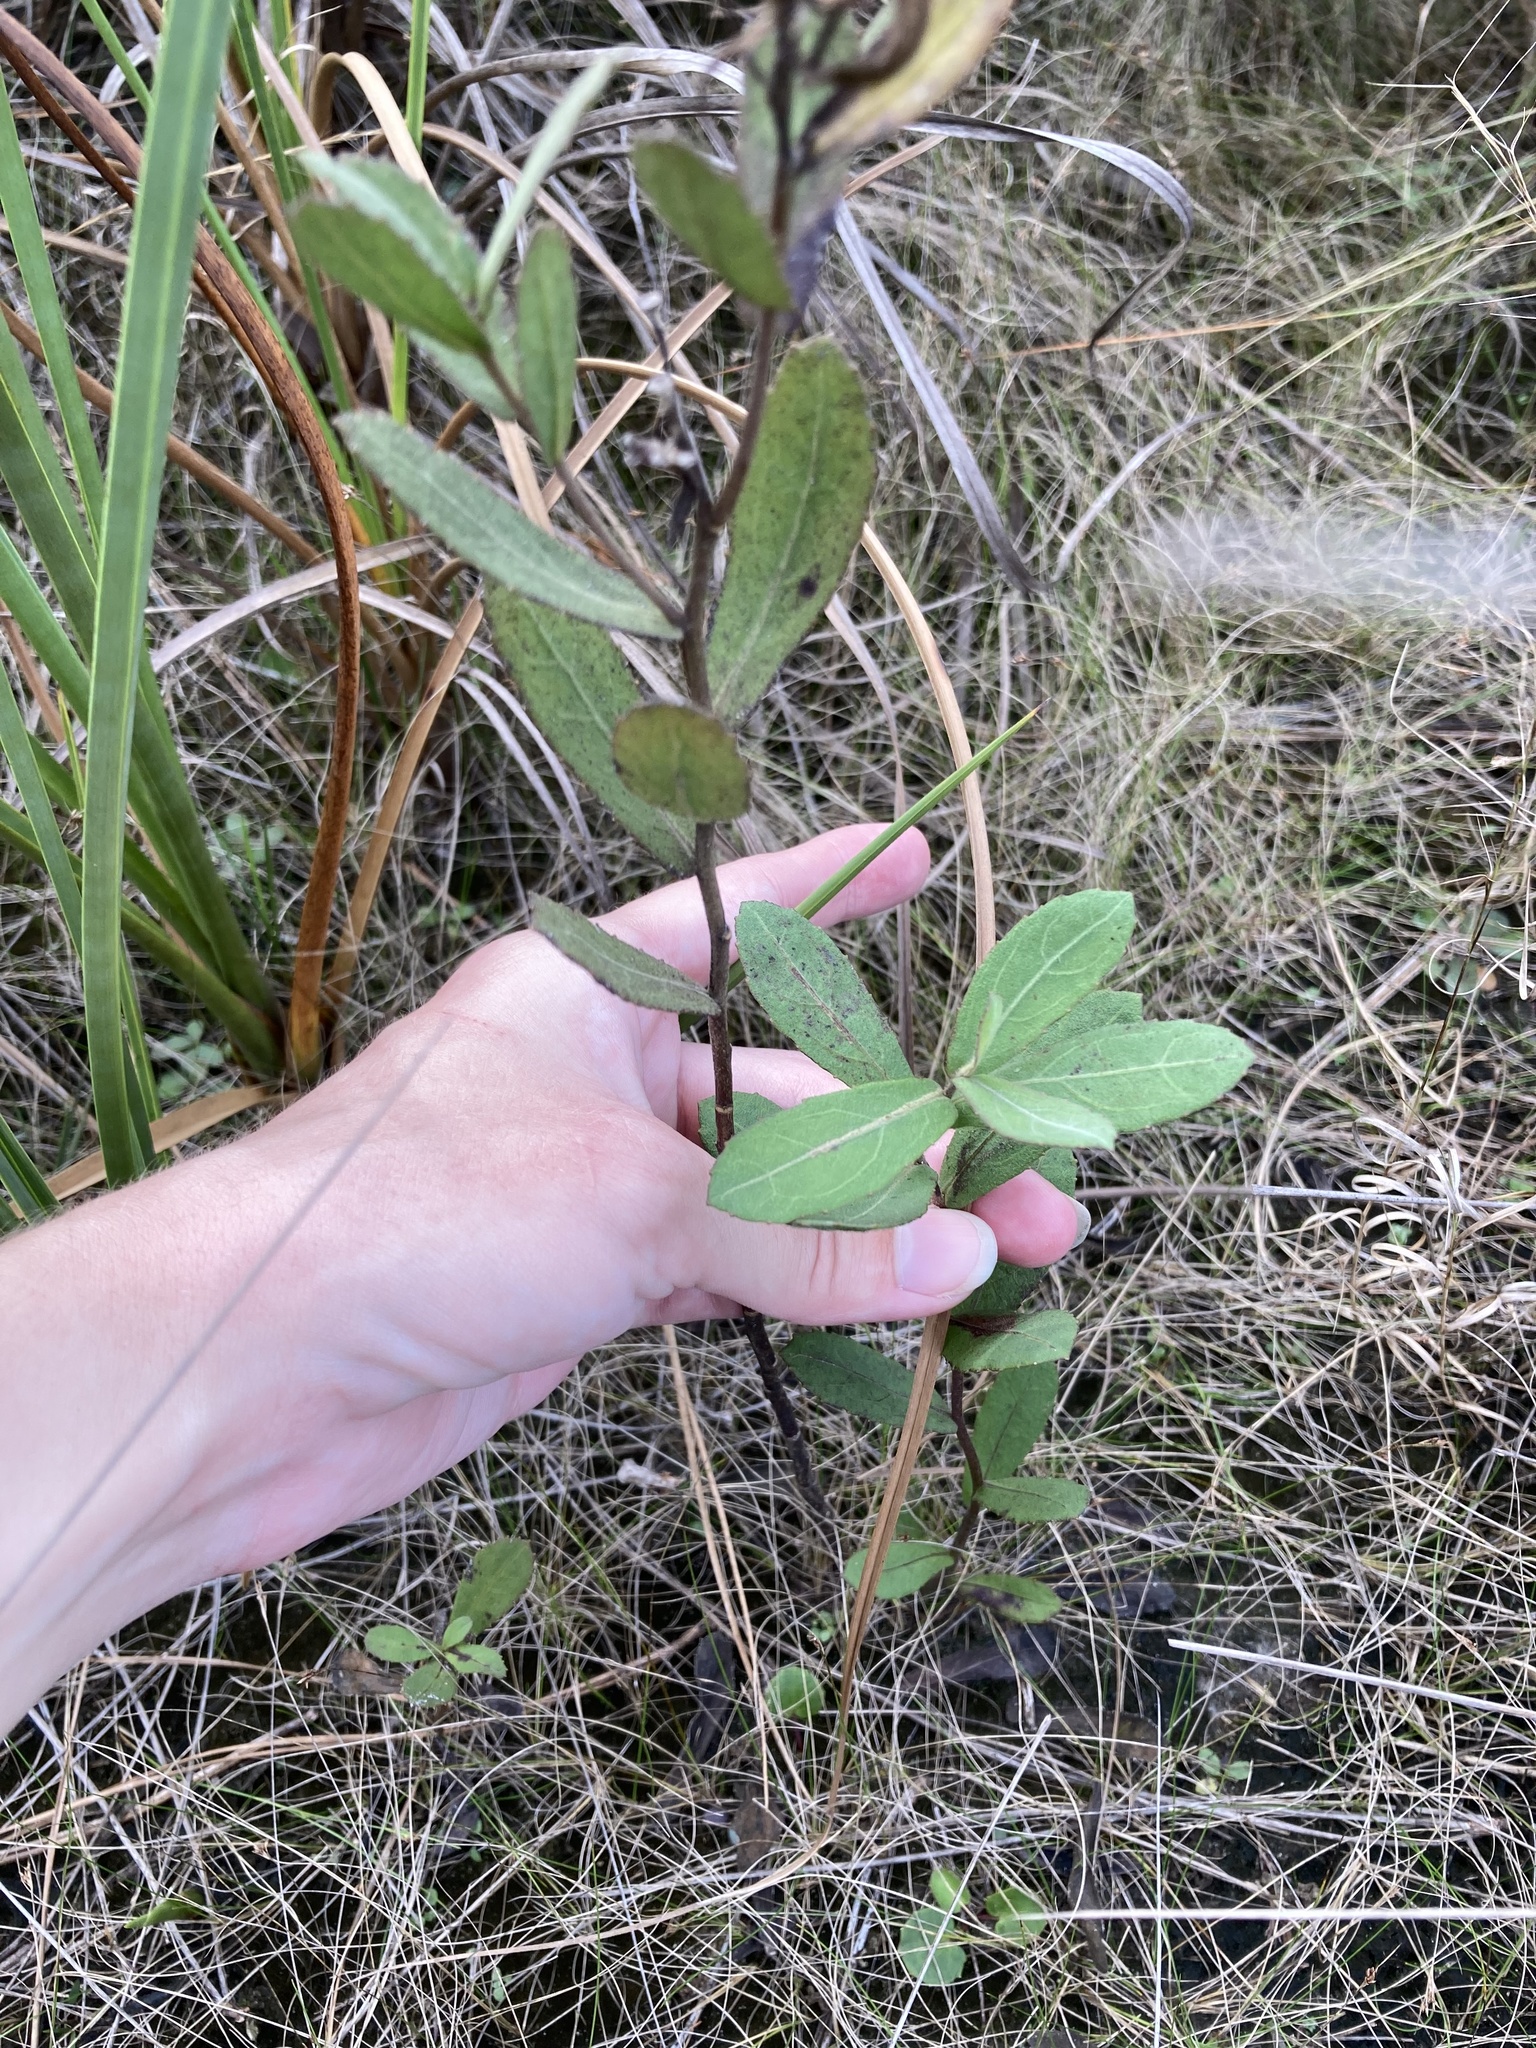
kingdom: Plantae
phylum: Tracheophyta
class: Magnoliopsida
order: Asterales
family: Asteraceae
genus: Pluchea
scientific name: Pluchea baccharis
